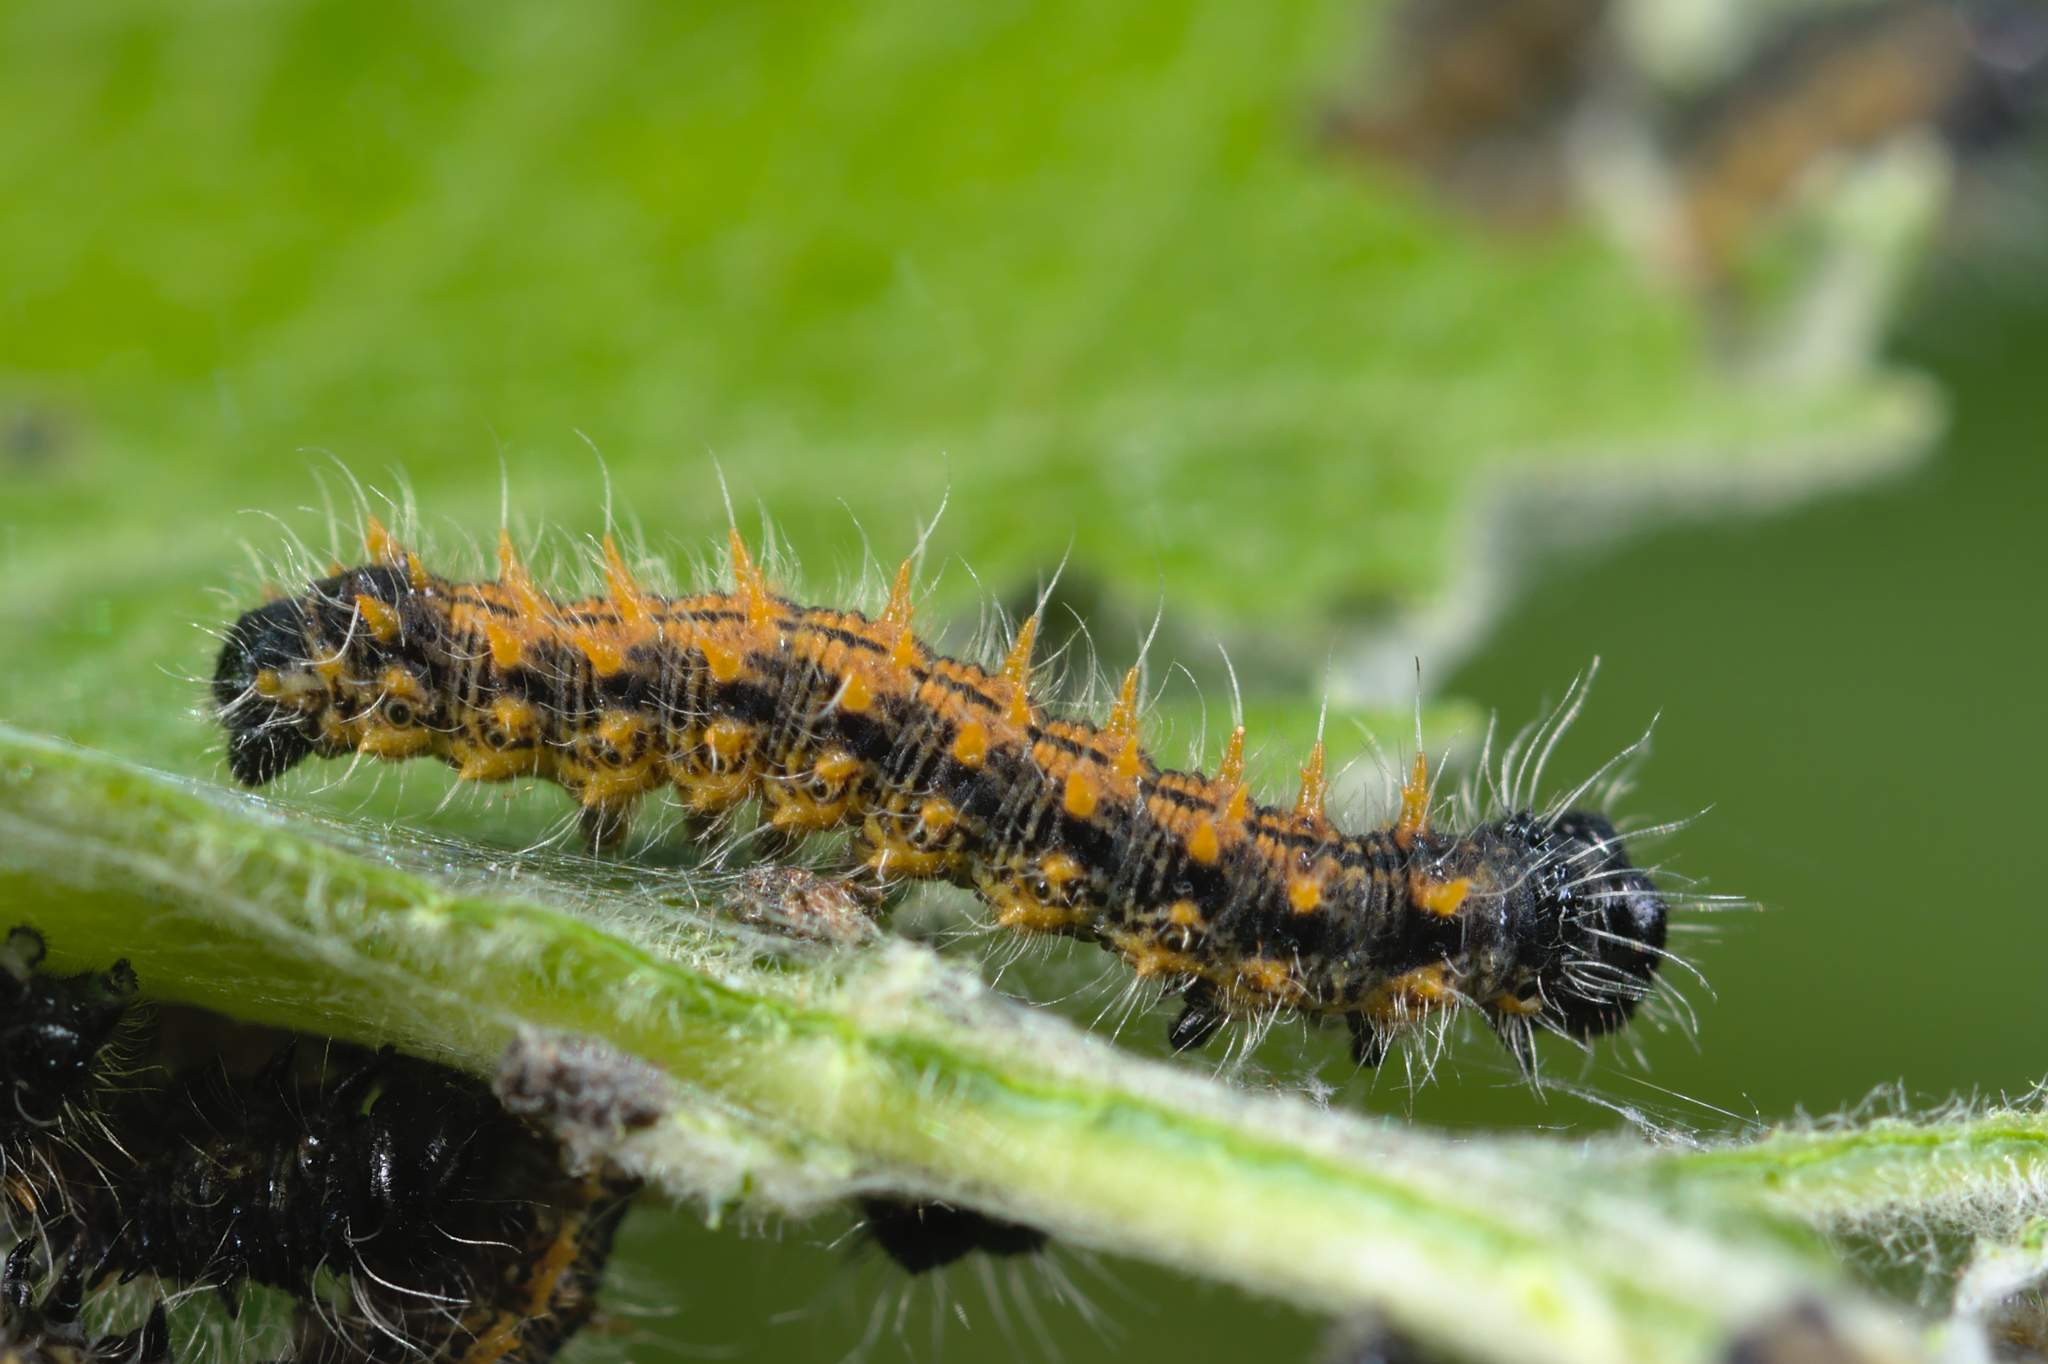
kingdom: Animalia
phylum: Arthropoda
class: Insecta
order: Lepidoptera
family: Nymphalidae
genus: Nymphalis
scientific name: Nymphalis polychloros
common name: Large tortoiseshell
